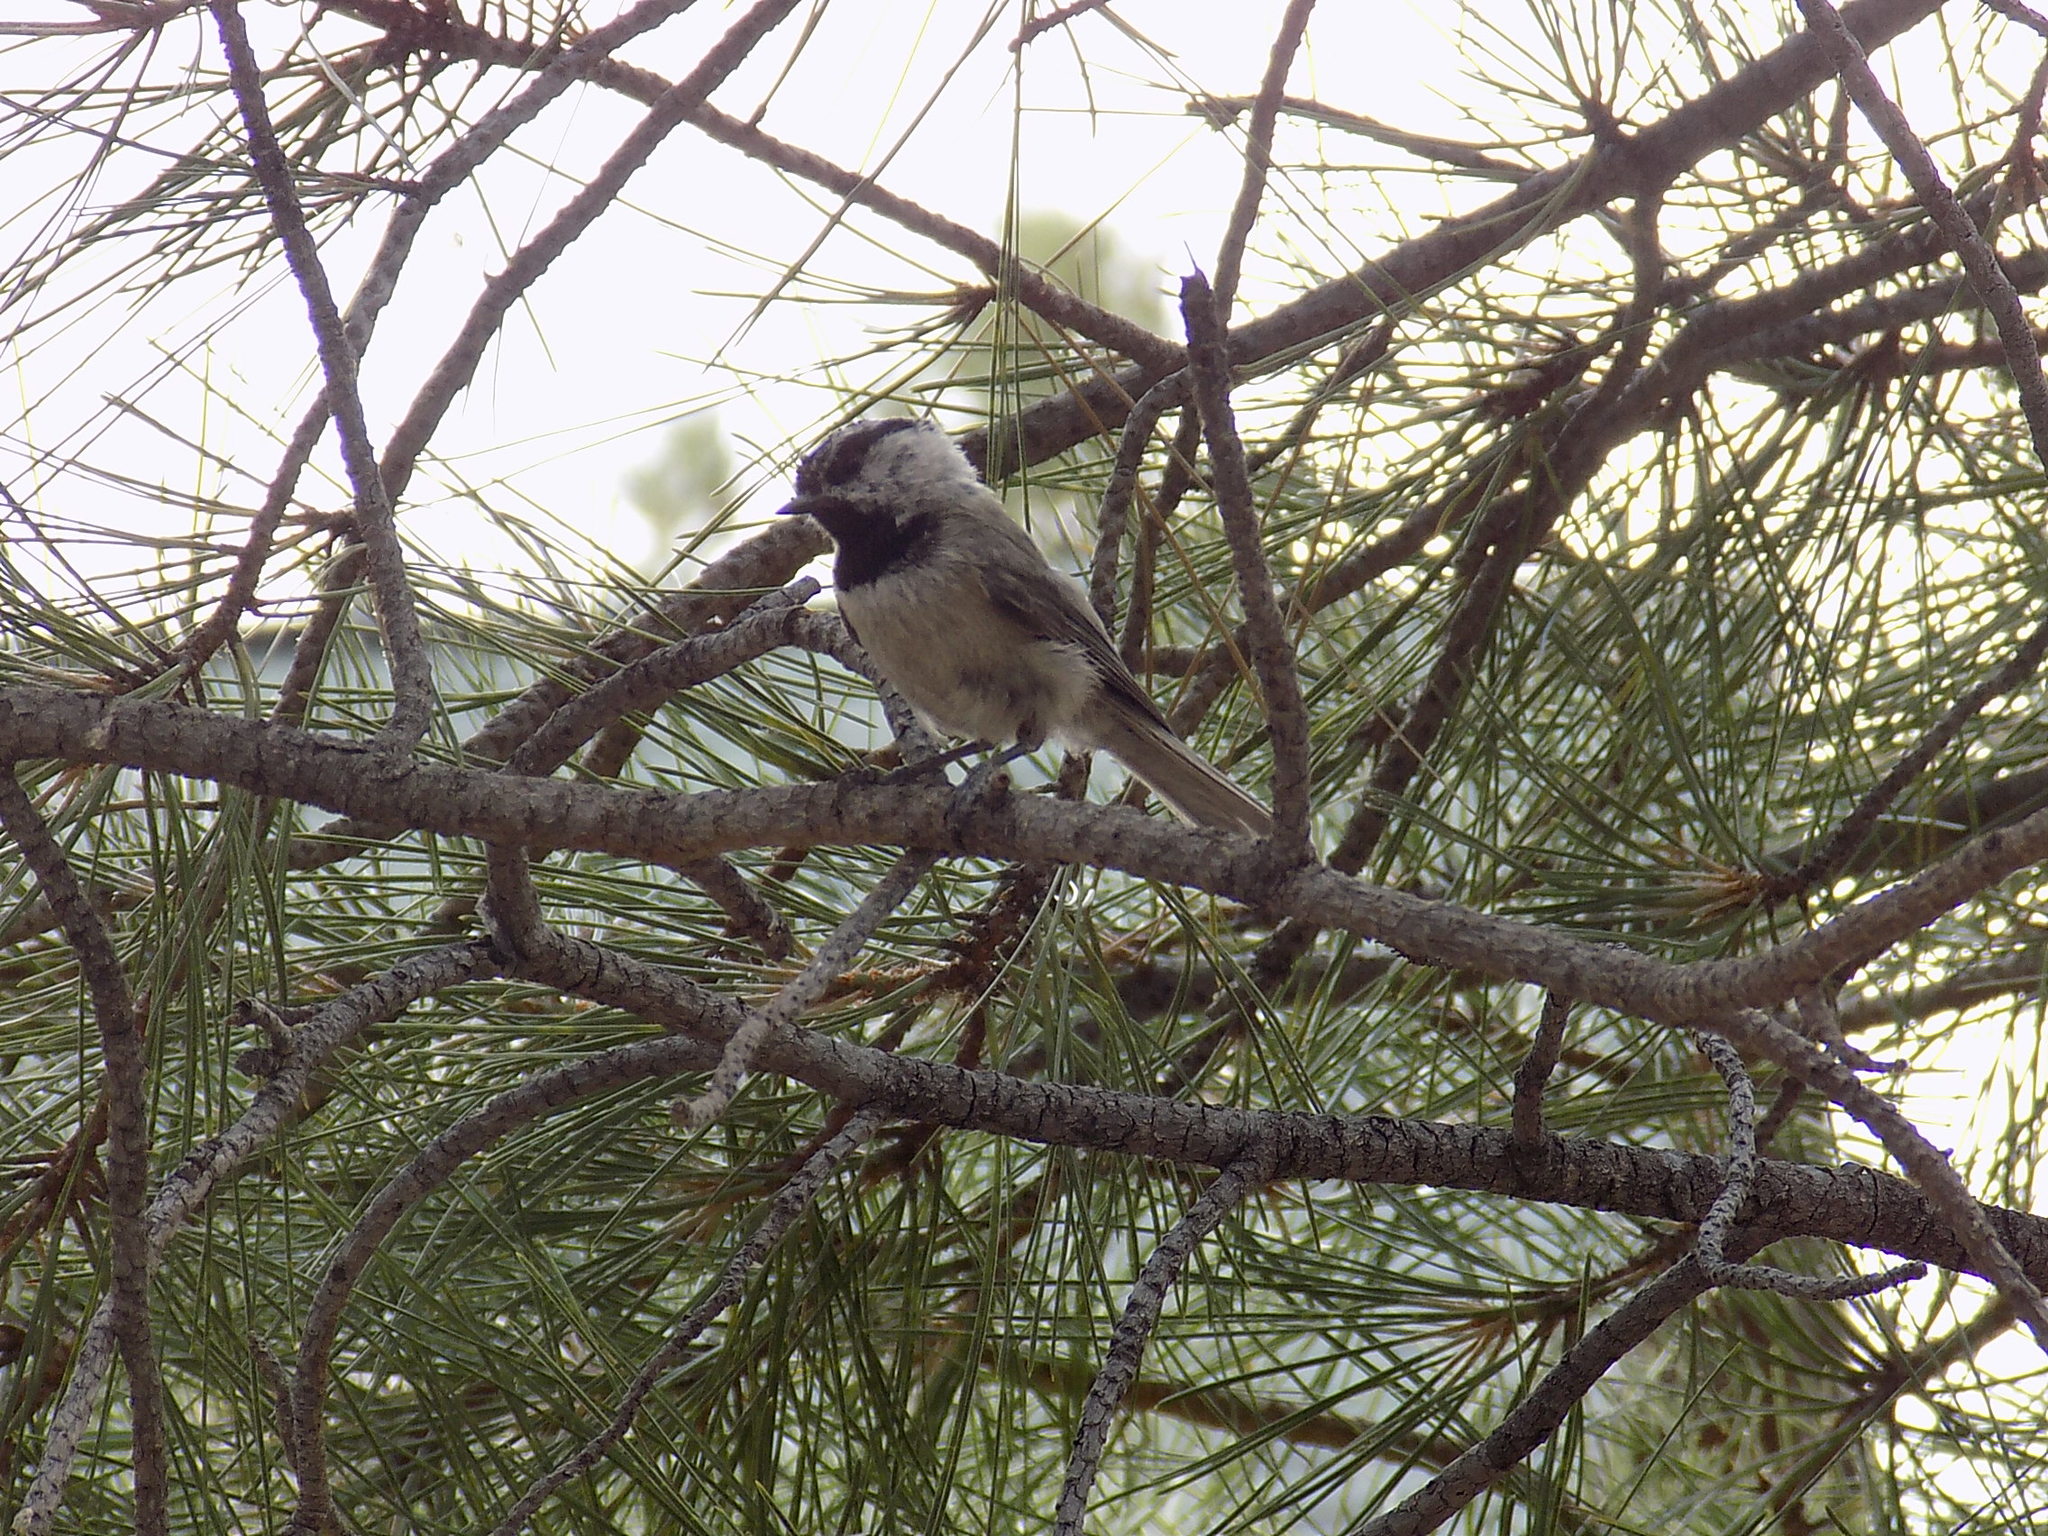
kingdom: Animalia
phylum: Chordata
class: Aves
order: Passeriformes
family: Paridae
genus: Poecile
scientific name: Poecile gambeli
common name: Mountain chickadee
